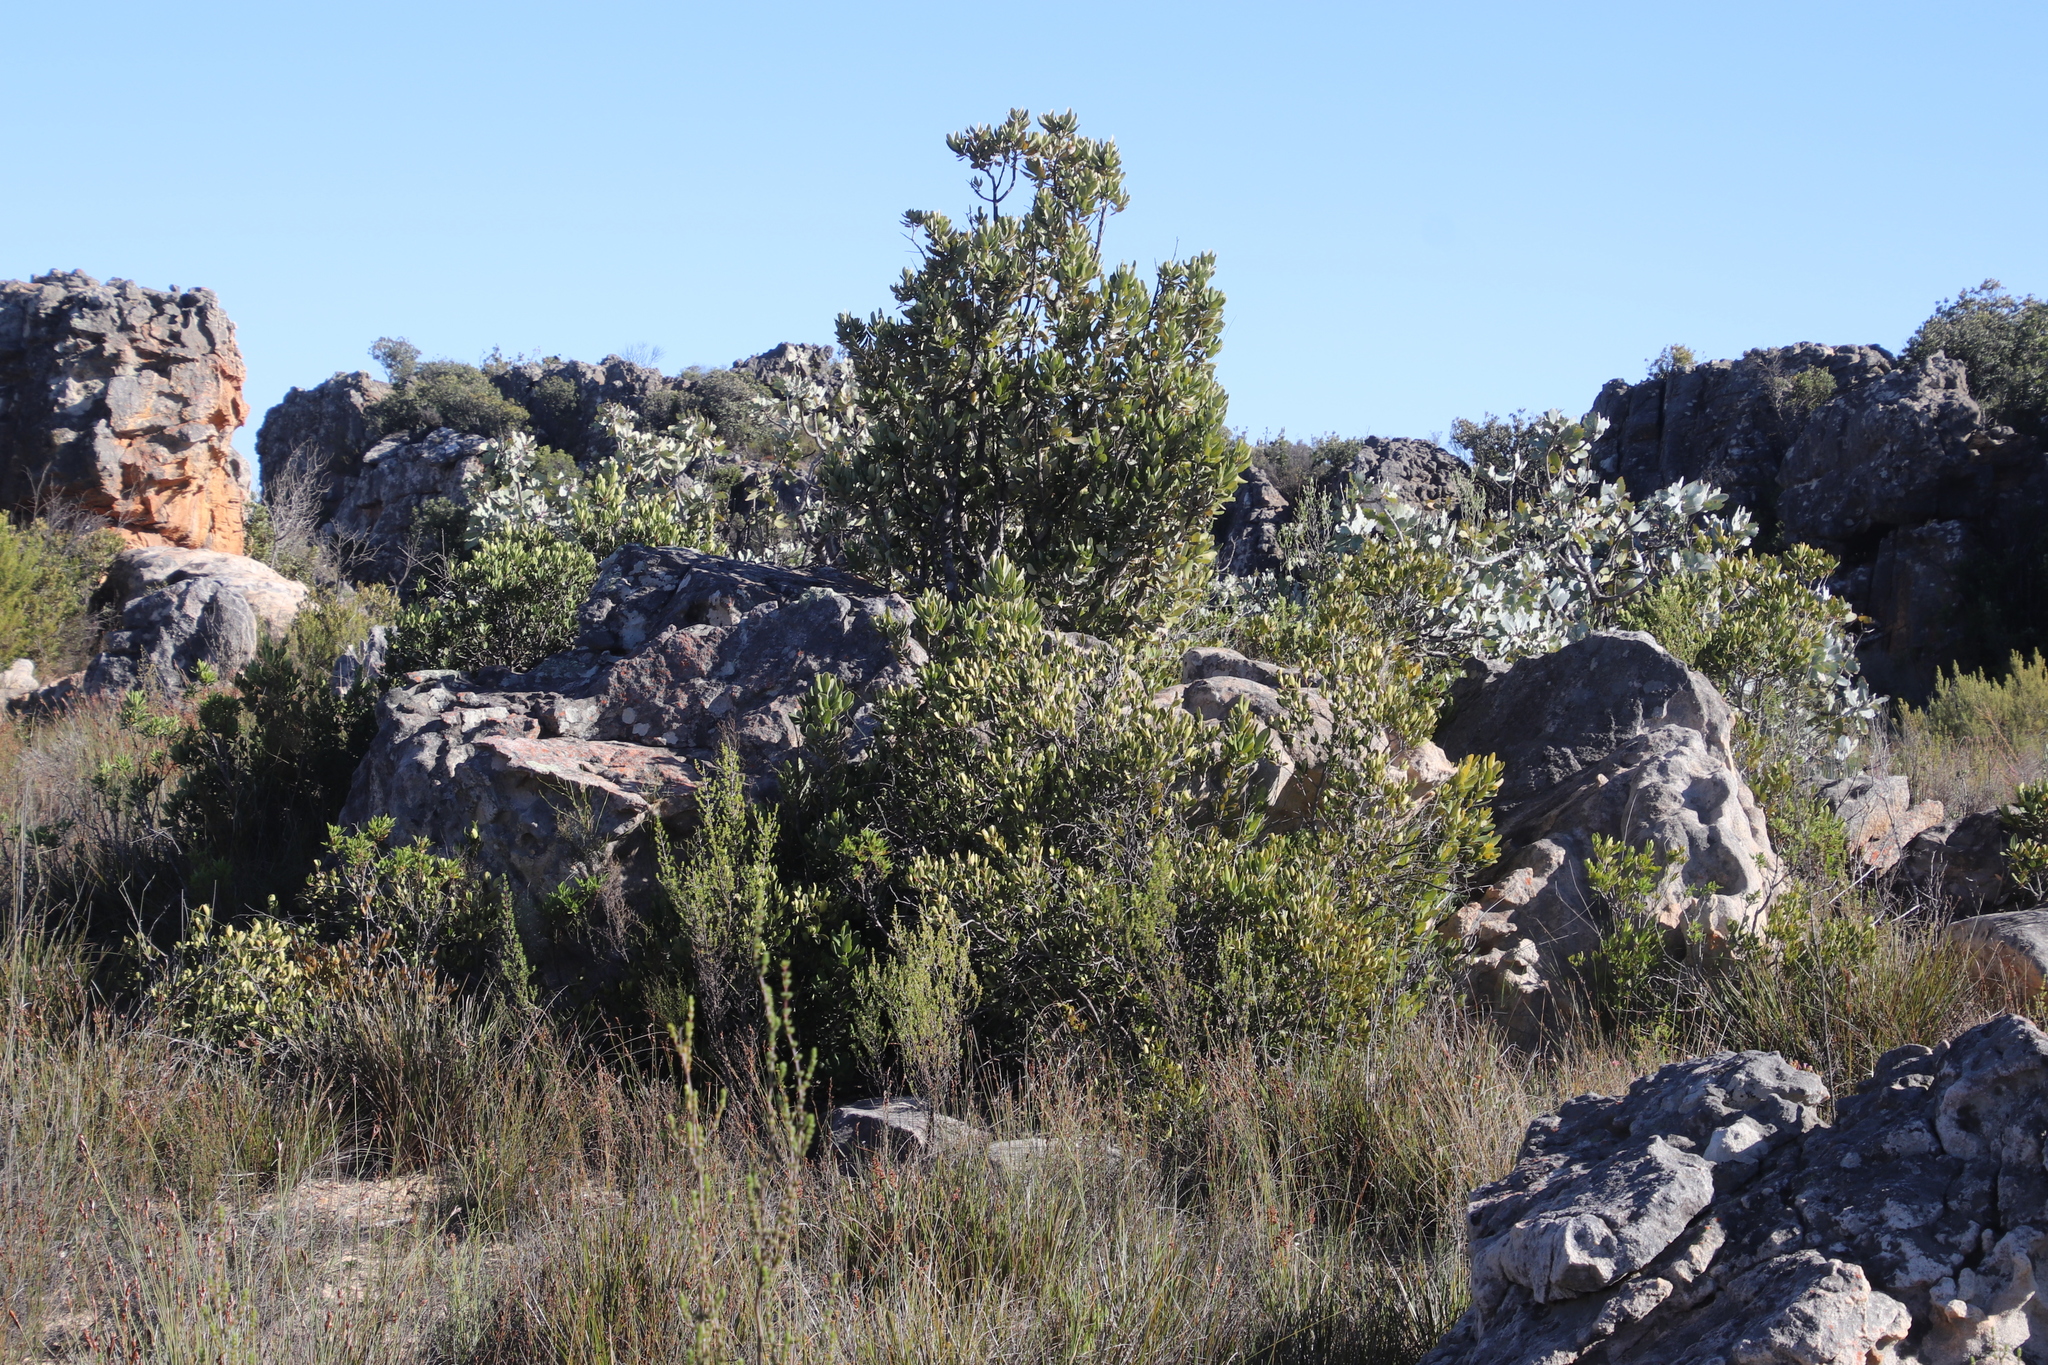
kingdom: Plantae
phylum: Tracheophyta
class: Magnoliopsida
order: Sapindales
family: Anacardiaceae
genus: Heeria
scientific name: Heeria argentea
